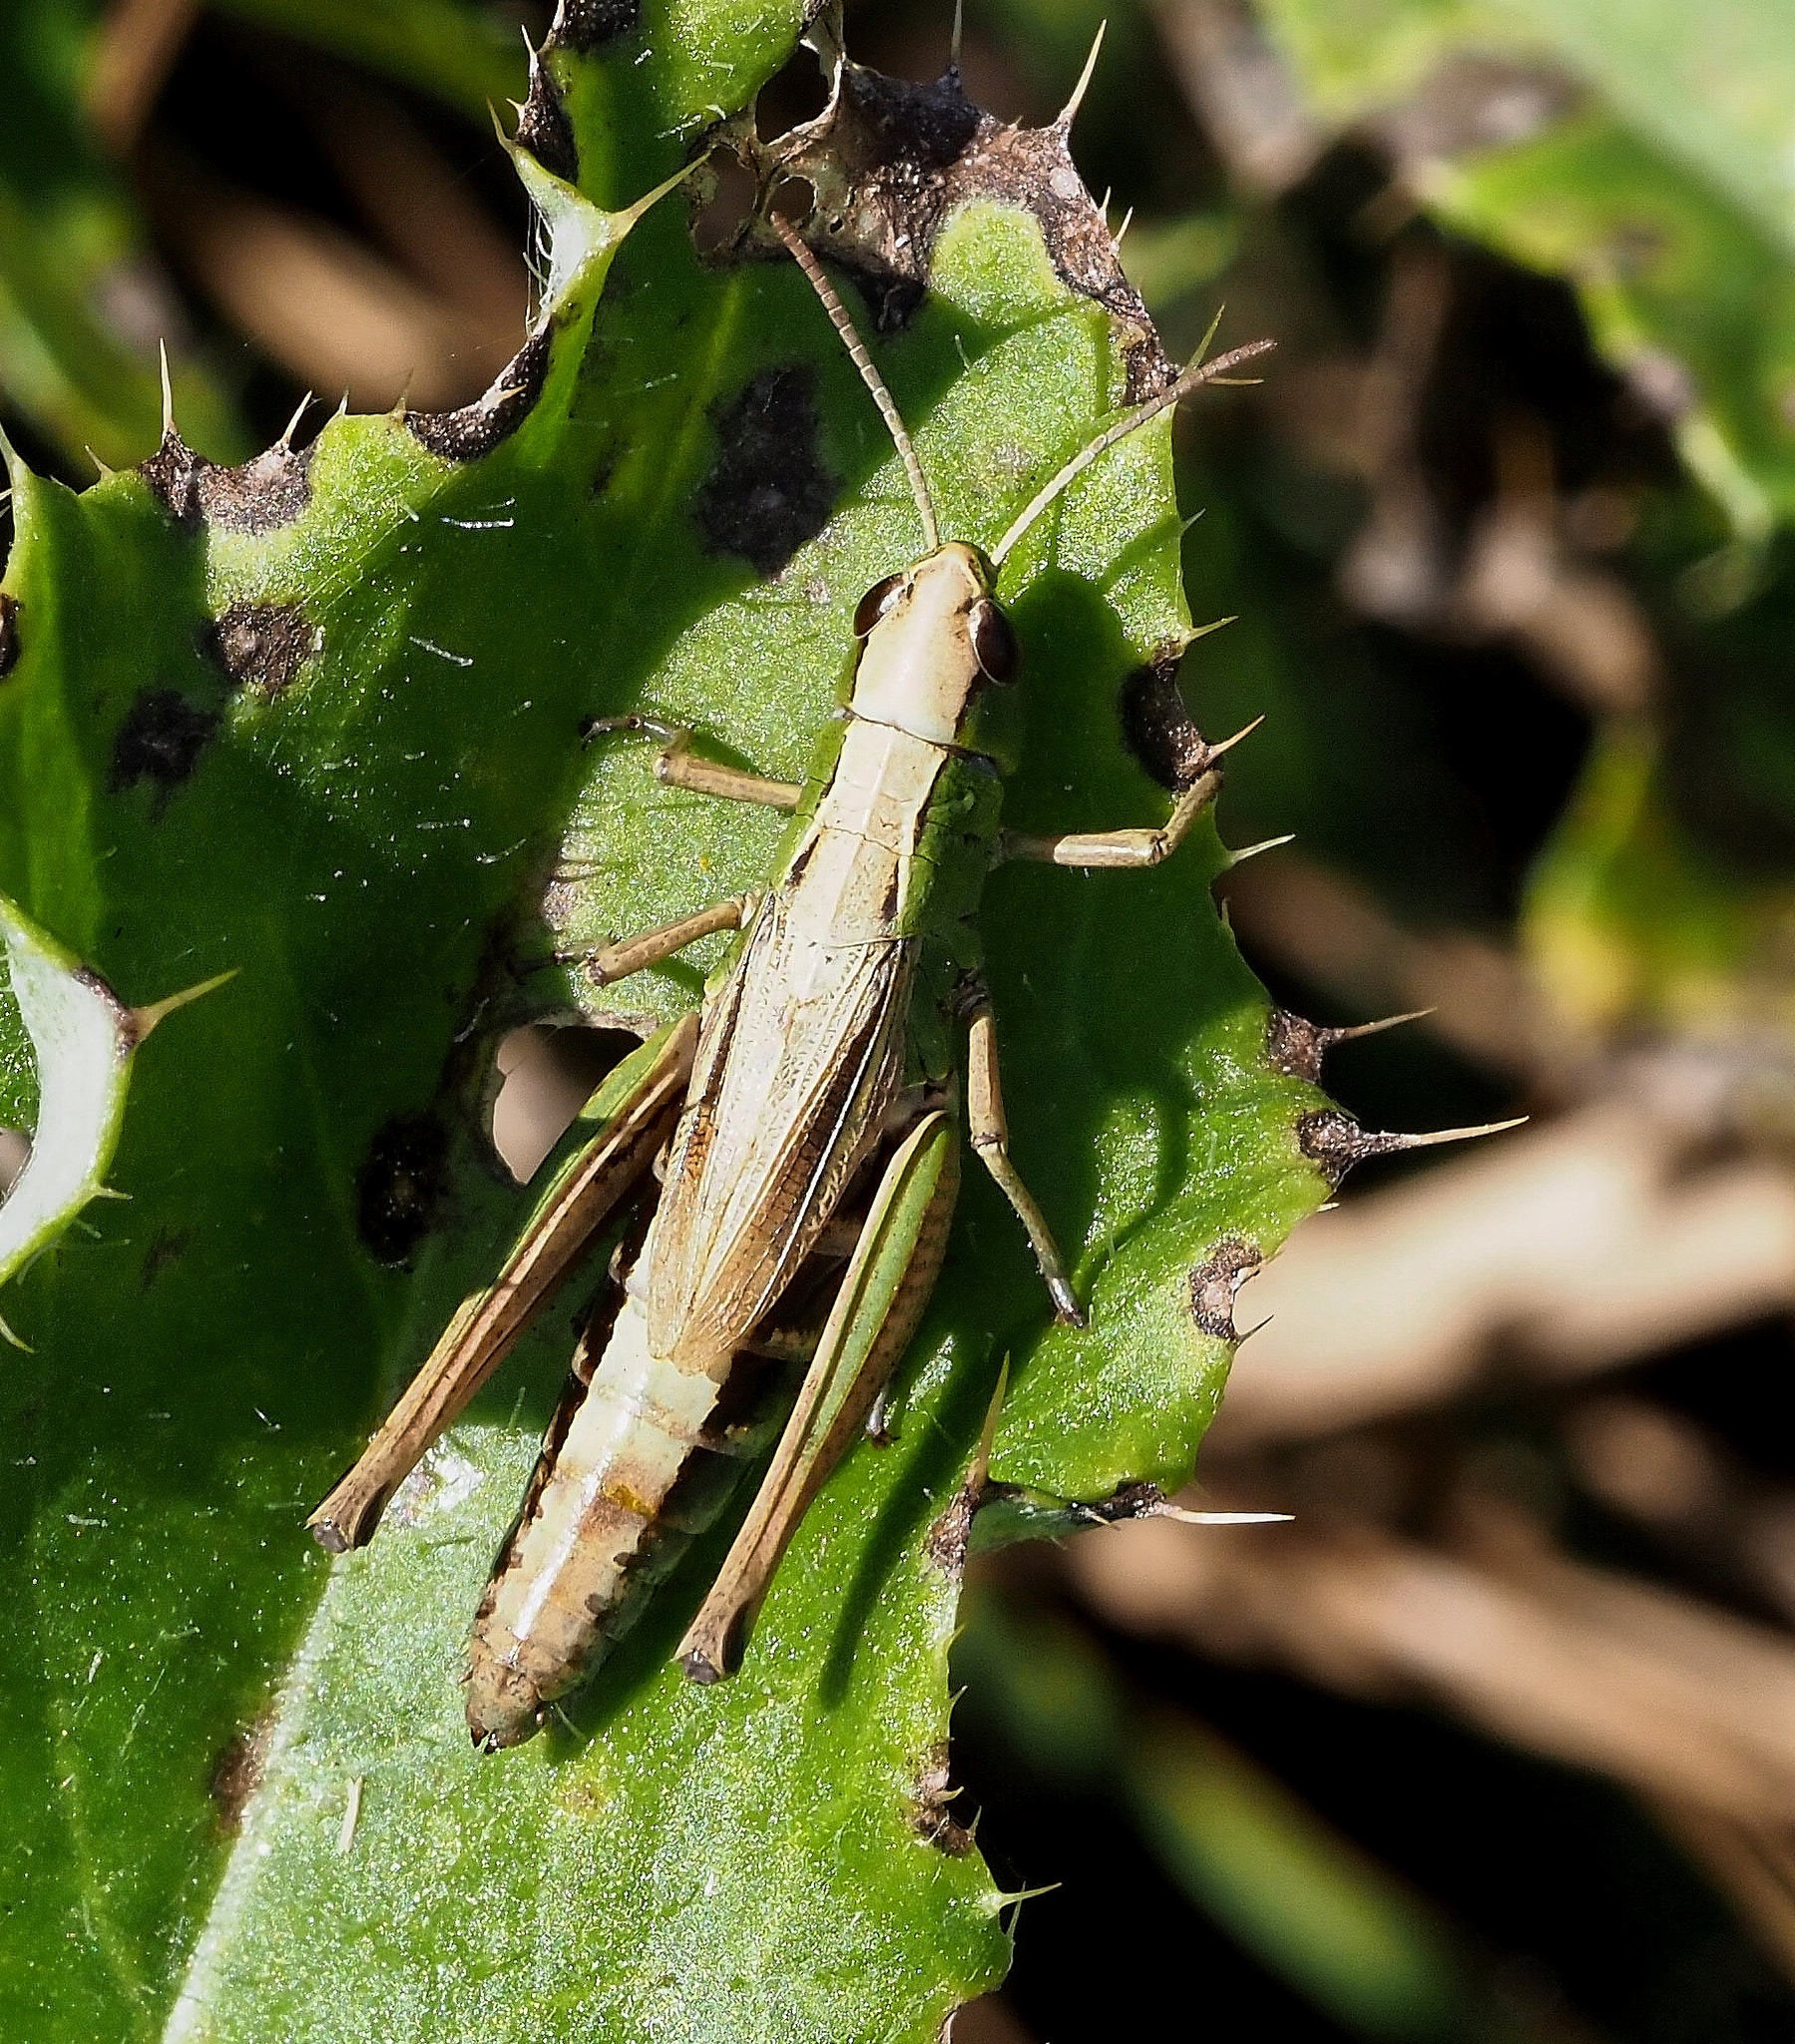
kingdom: Animalia
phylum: Arthropoda
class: Insecta
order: Orthoptera
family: Acrididae
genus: Pseudochorthippus
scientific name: Pseudochorthippus parallelus
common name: Meadow grasshopper
